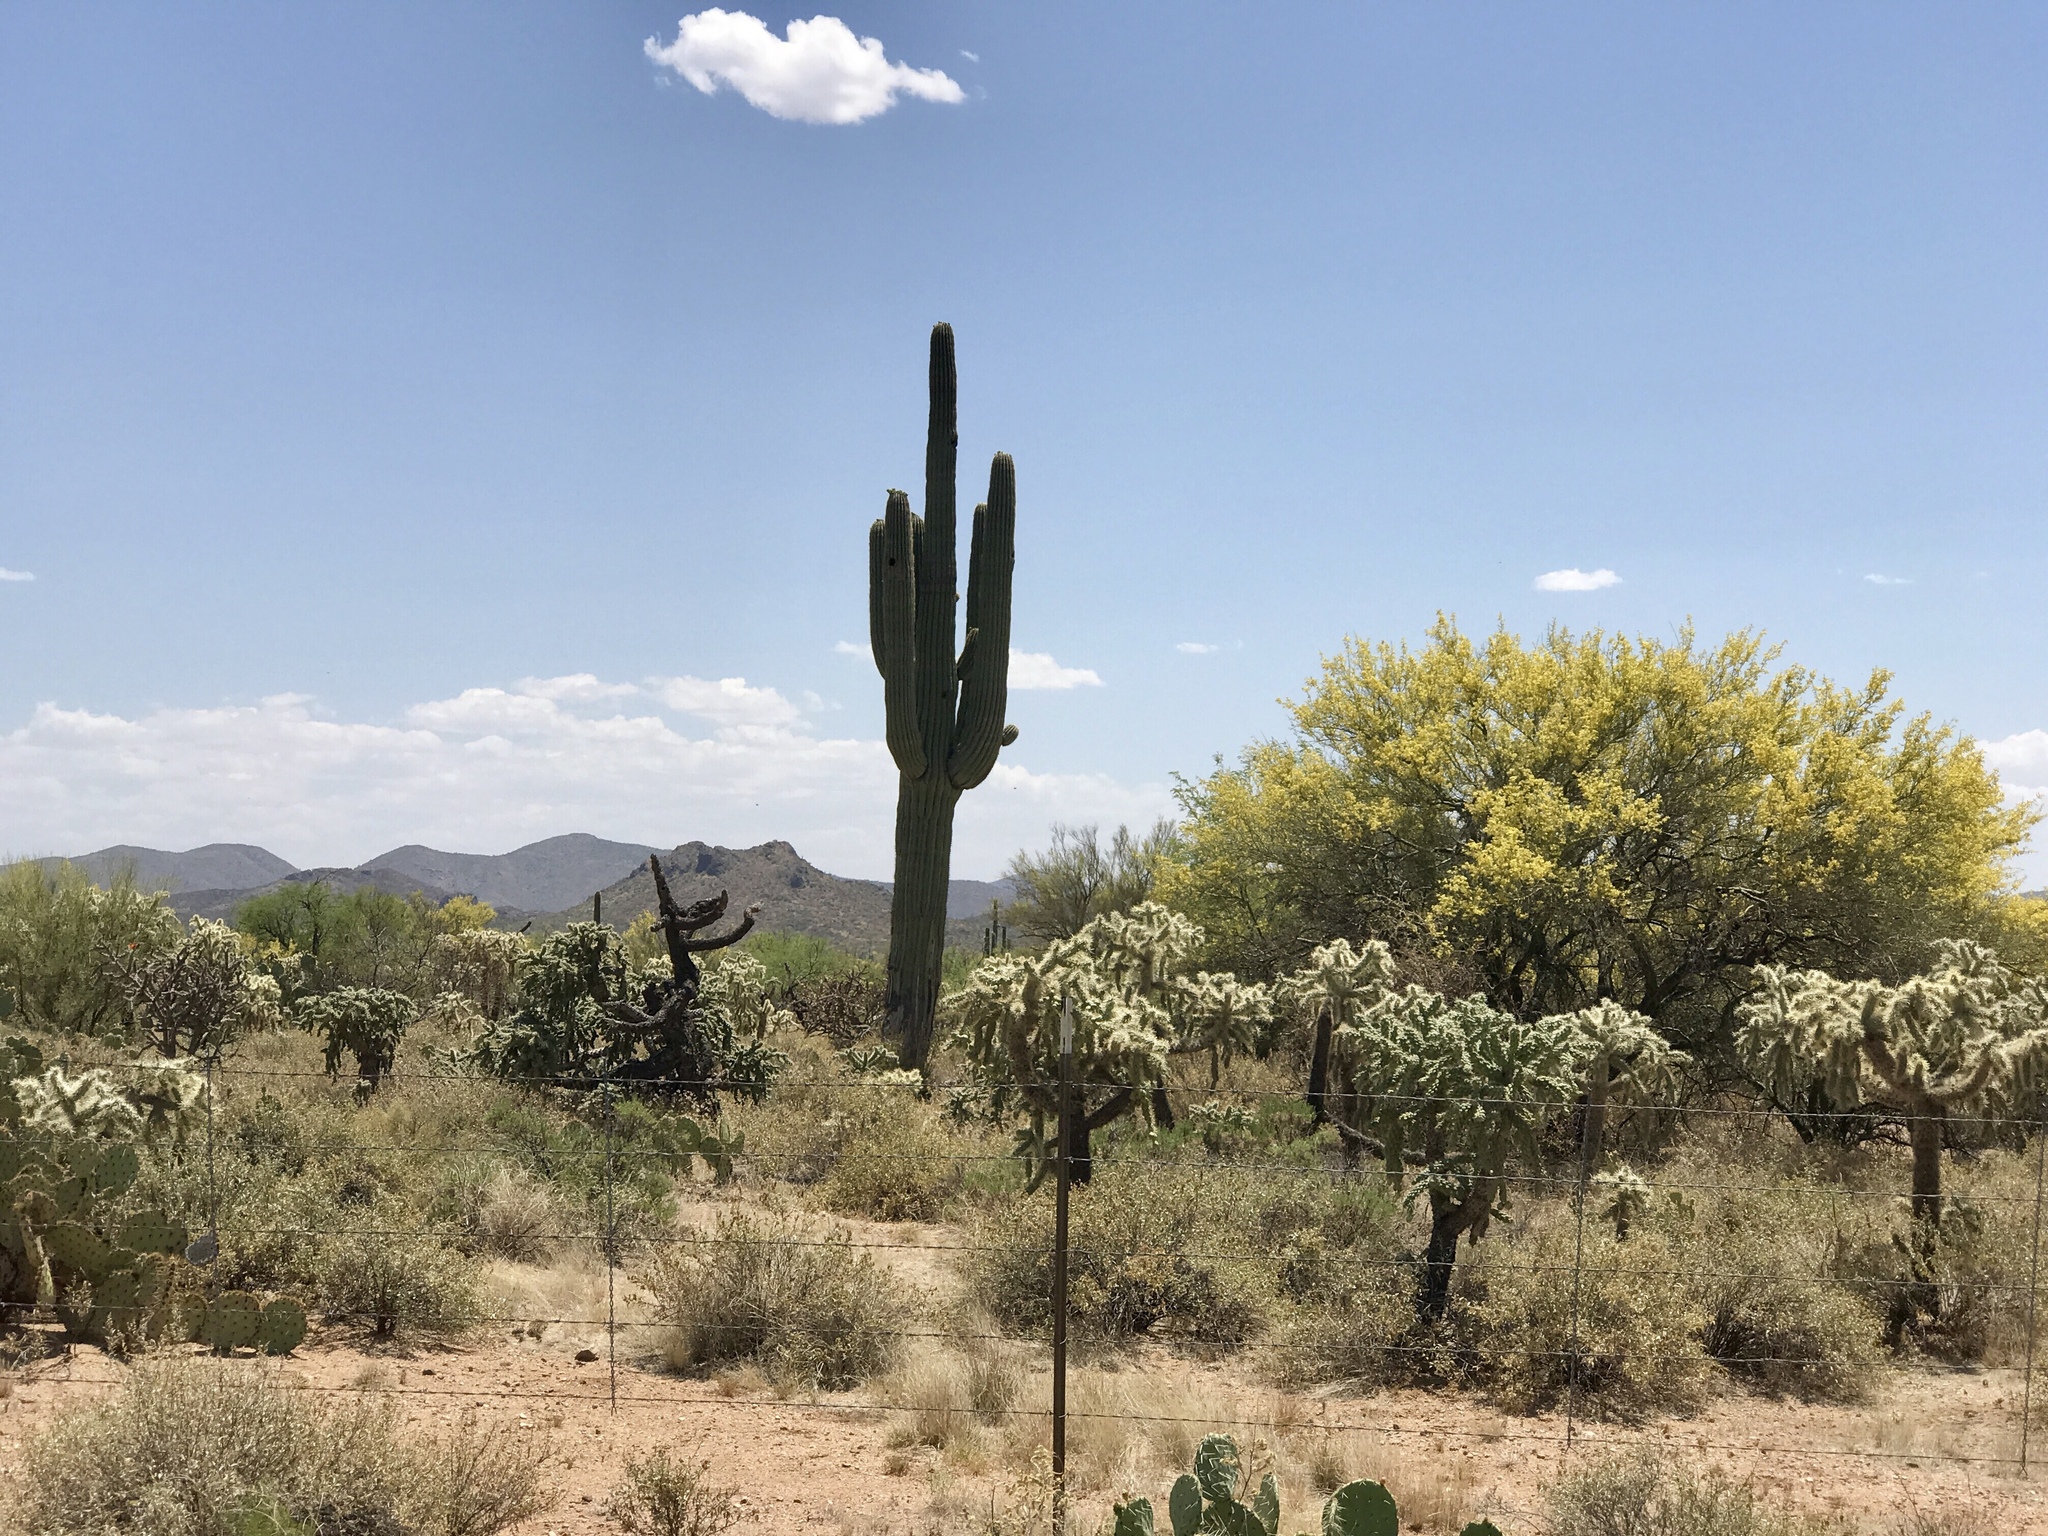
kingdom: Plantae
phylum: Tracheophyta
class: Magnoliopsida
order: Caryophyllales
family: Cactaceae
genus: Carnegiea
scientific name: Carnegiea gigantea
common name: Saguaro
